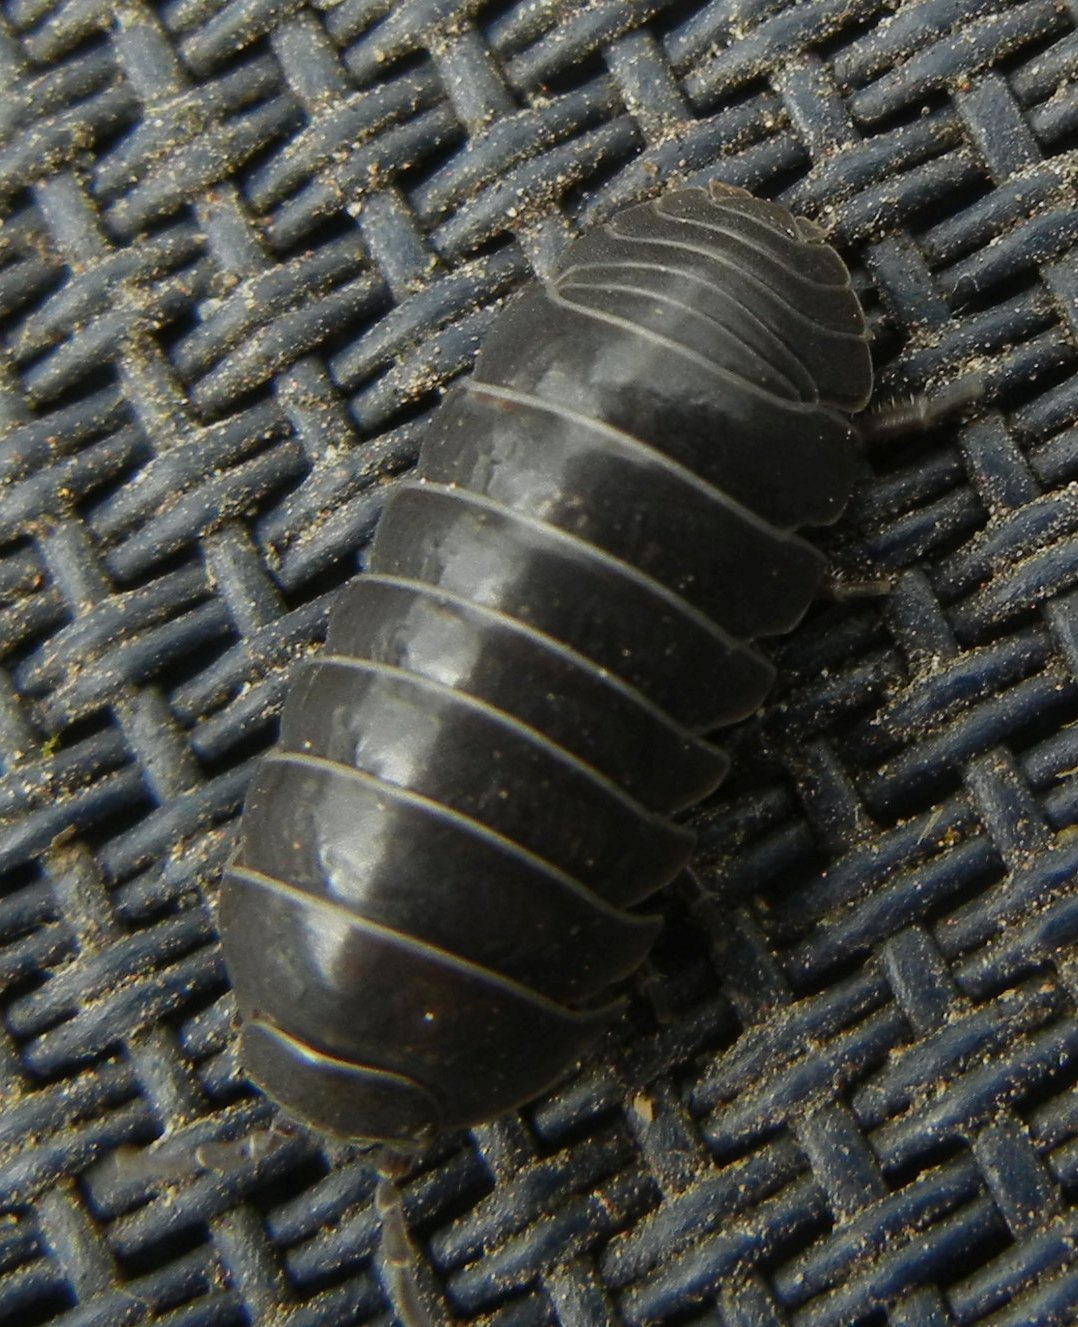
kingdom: Animalia
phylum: Arthropoda
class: Malacostraca
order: Isopoda
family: Armadillidiidae
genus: Armadillidium
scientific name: Armadillidium vulgare
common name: Common pill woodlouse
